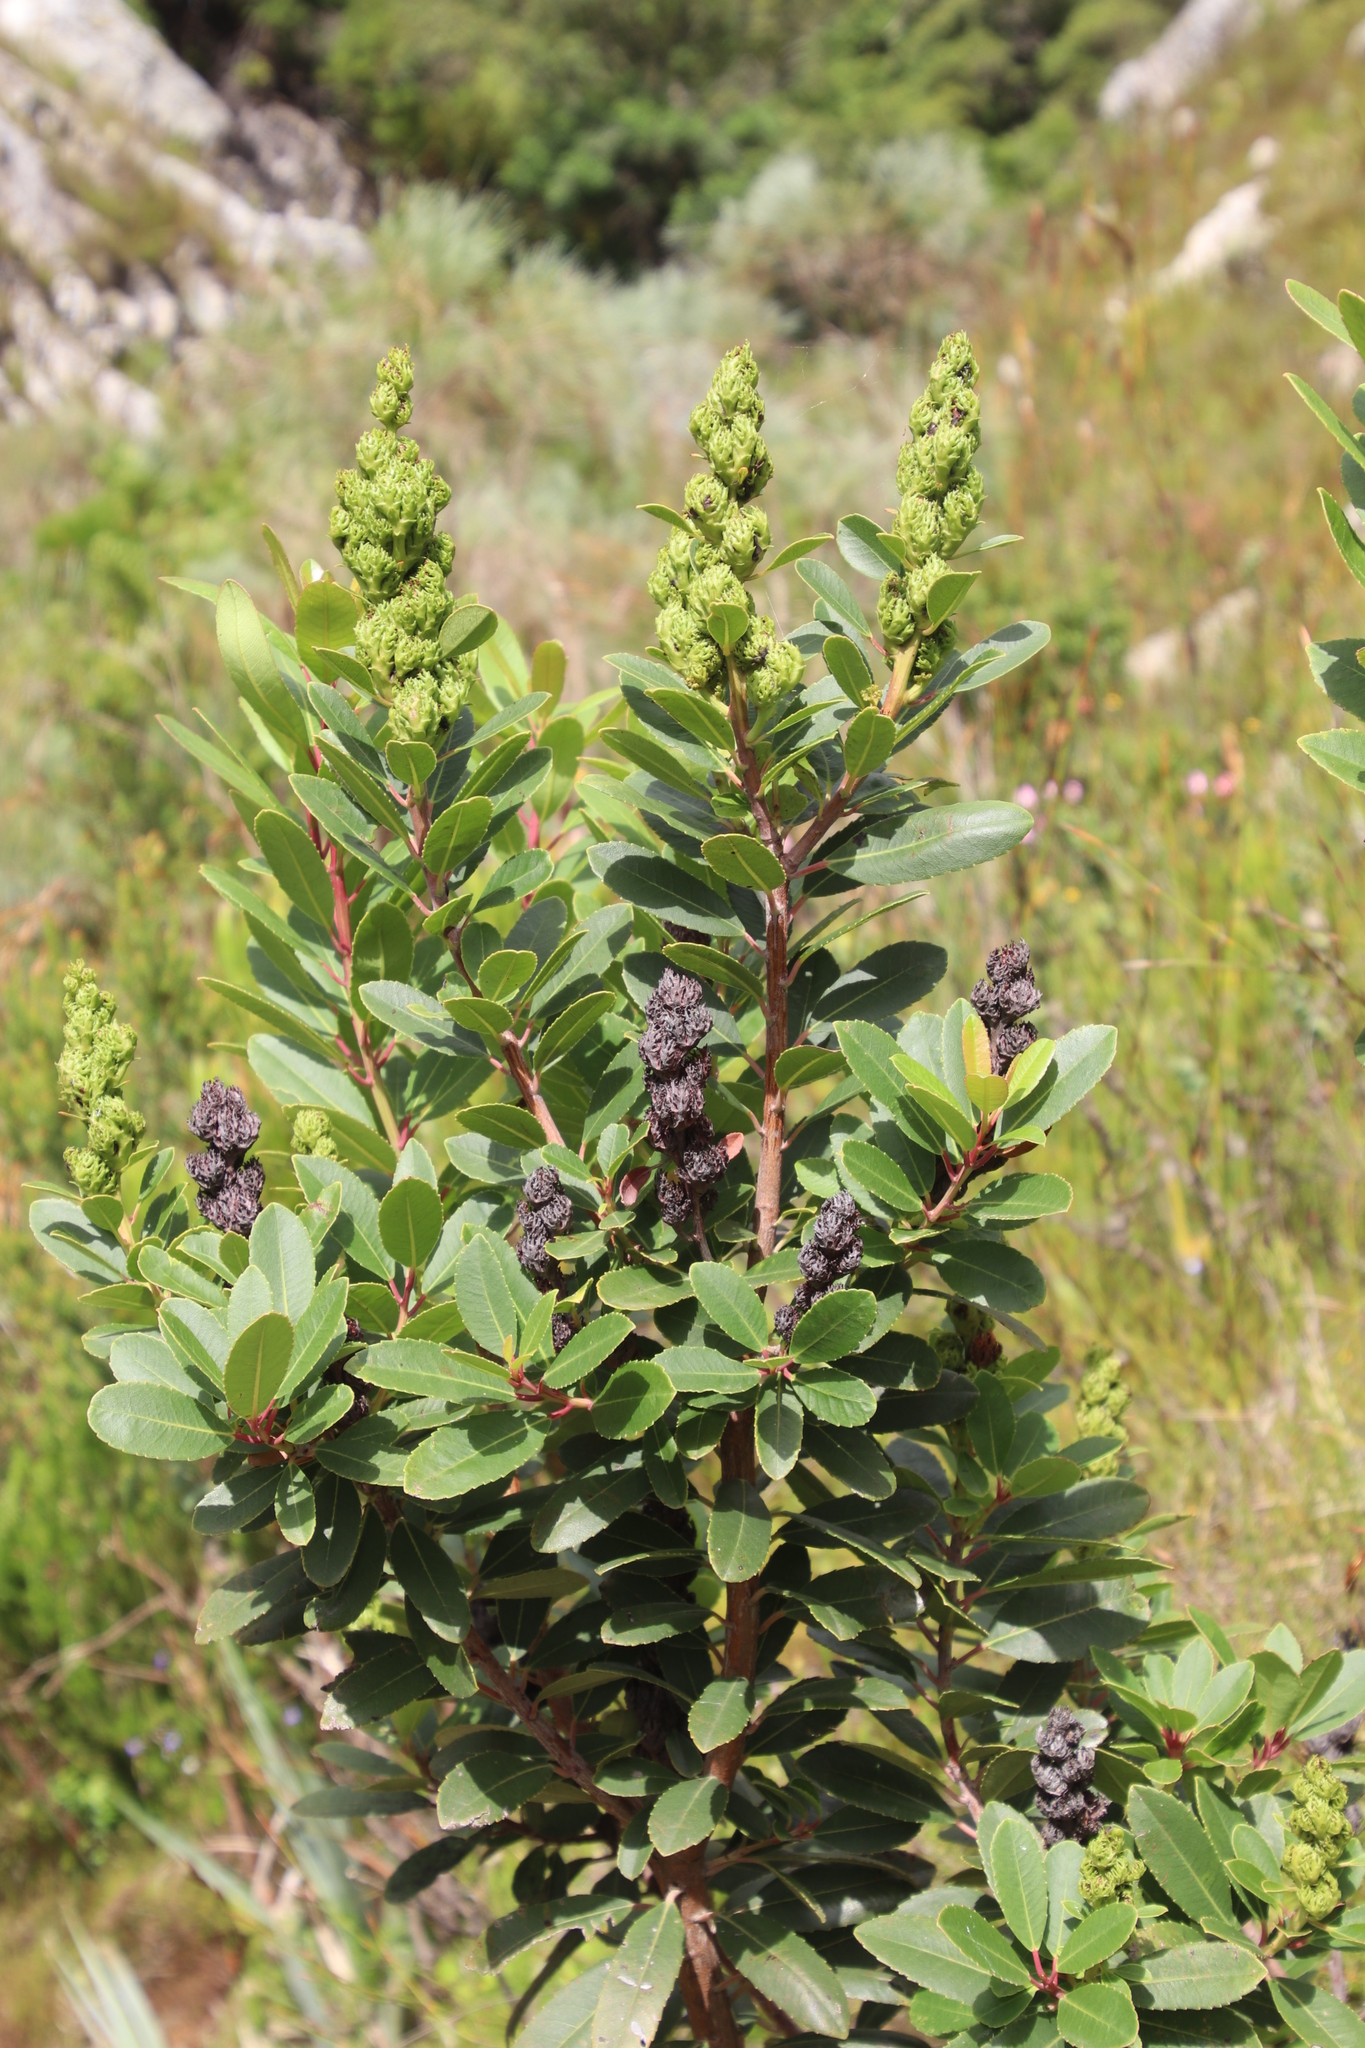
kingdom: Plantae
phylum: Tracheophyta
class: Magnoliopsida
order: Sapindales
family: Anacardiaceae
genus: Laurophyllus
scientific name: Laurophyllus capensis
